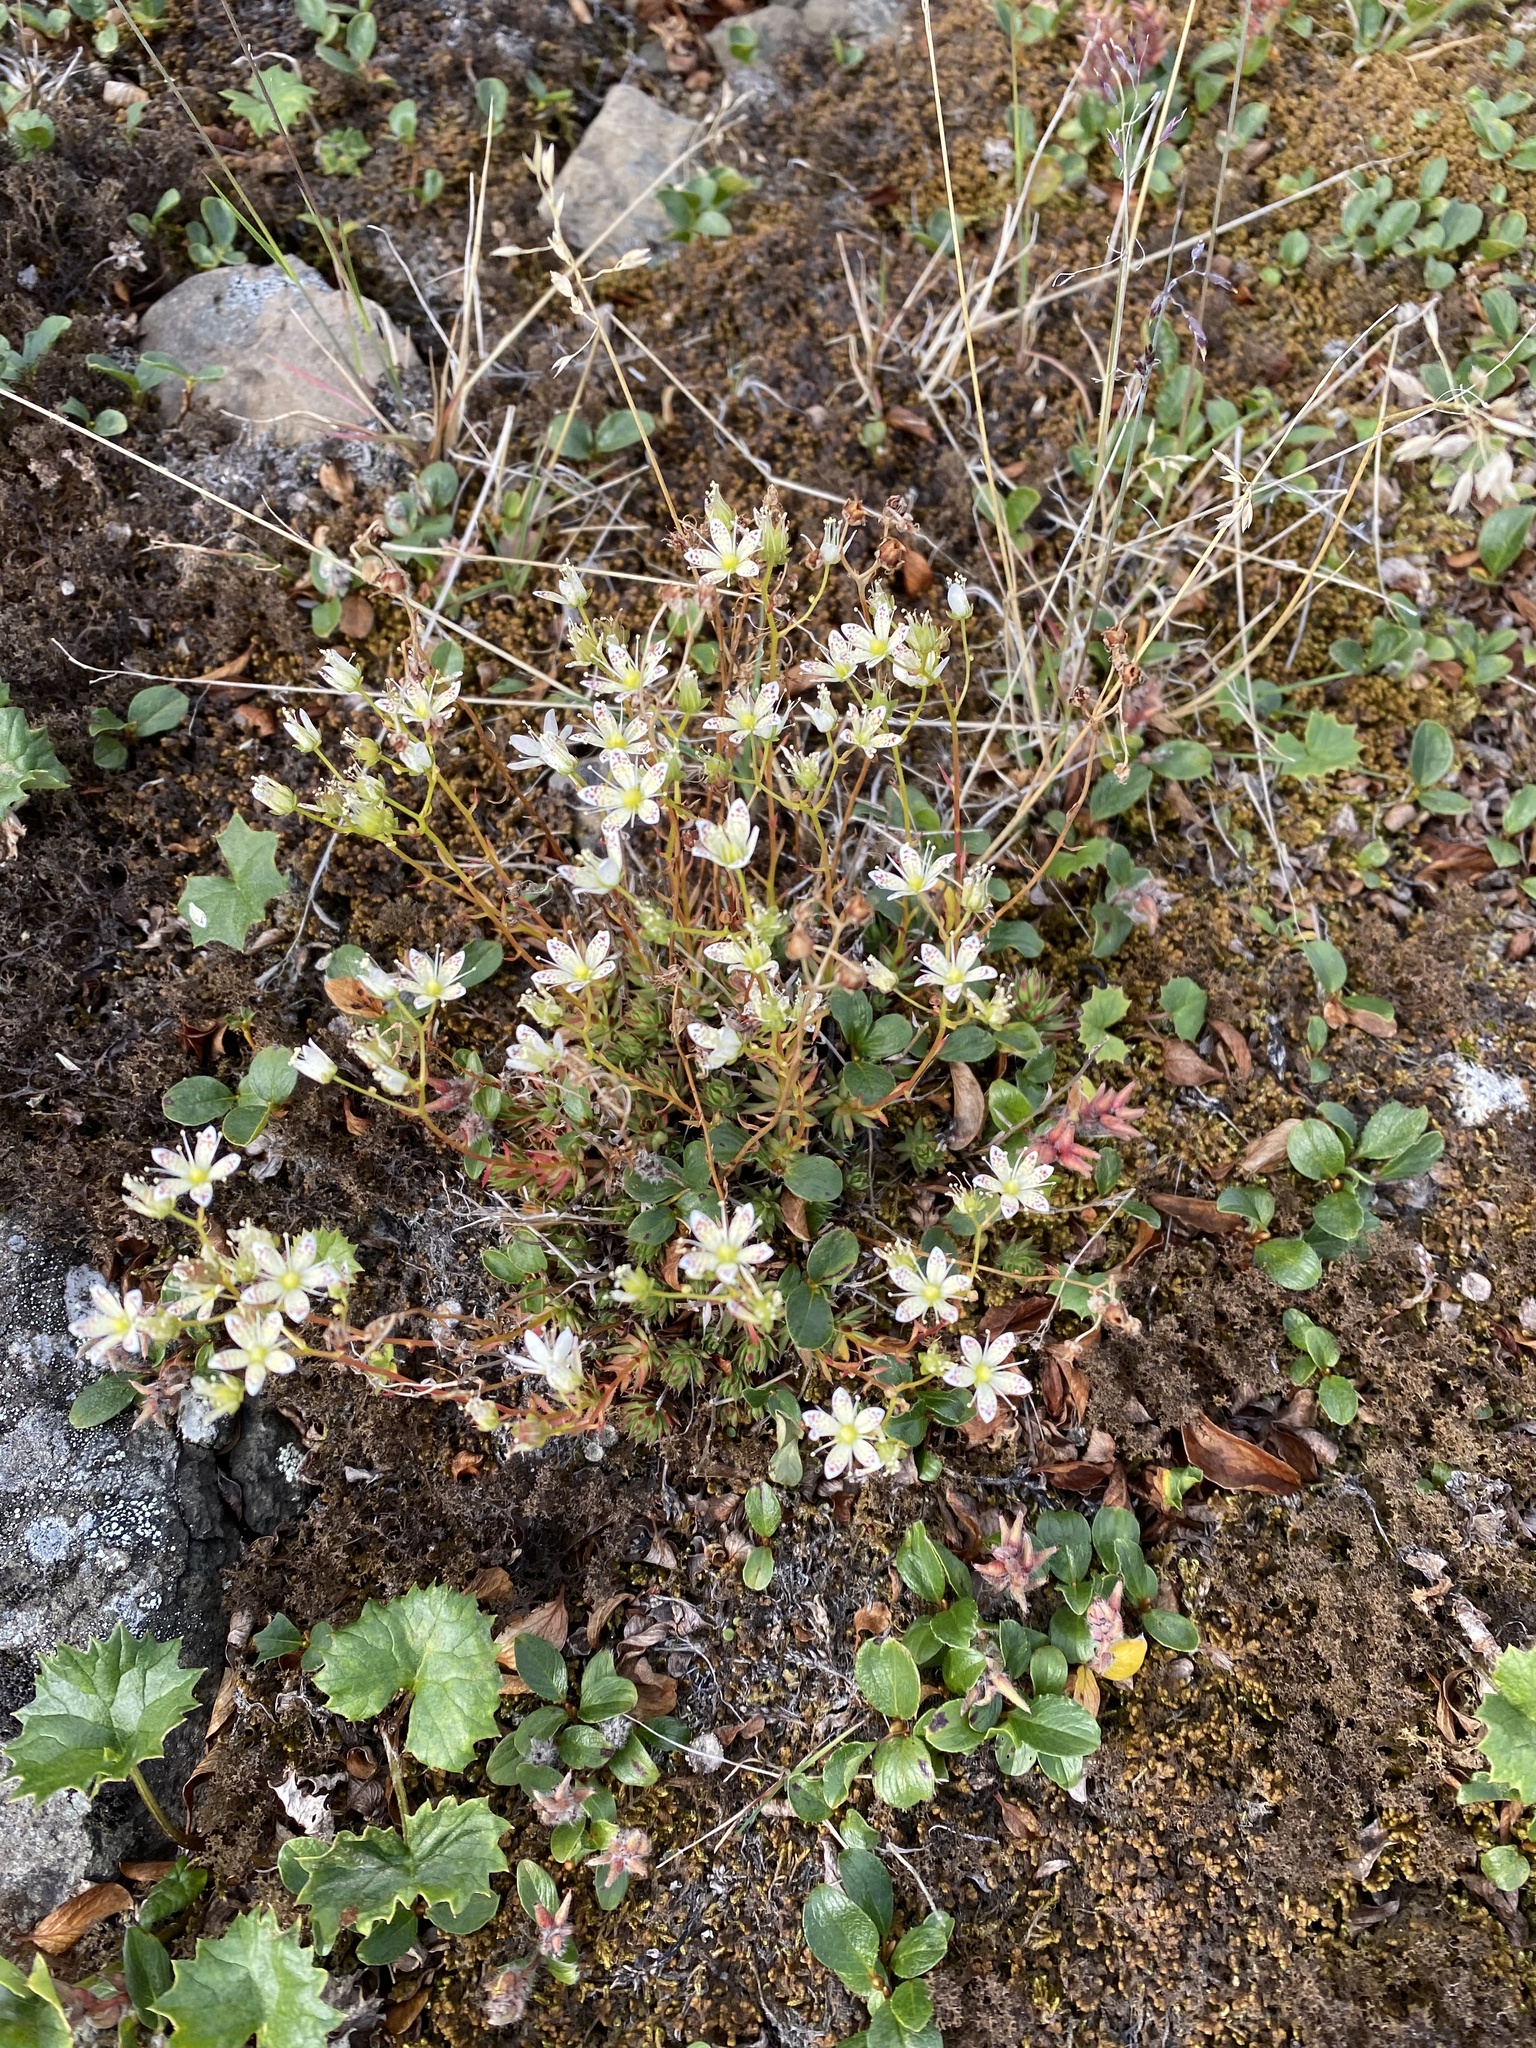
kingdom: Plantae
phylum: Tracheophyta
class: Magnoliopsida
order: Saxifragales
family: Saxifragaceae
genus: Saxifraga
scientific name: Saxifraga
